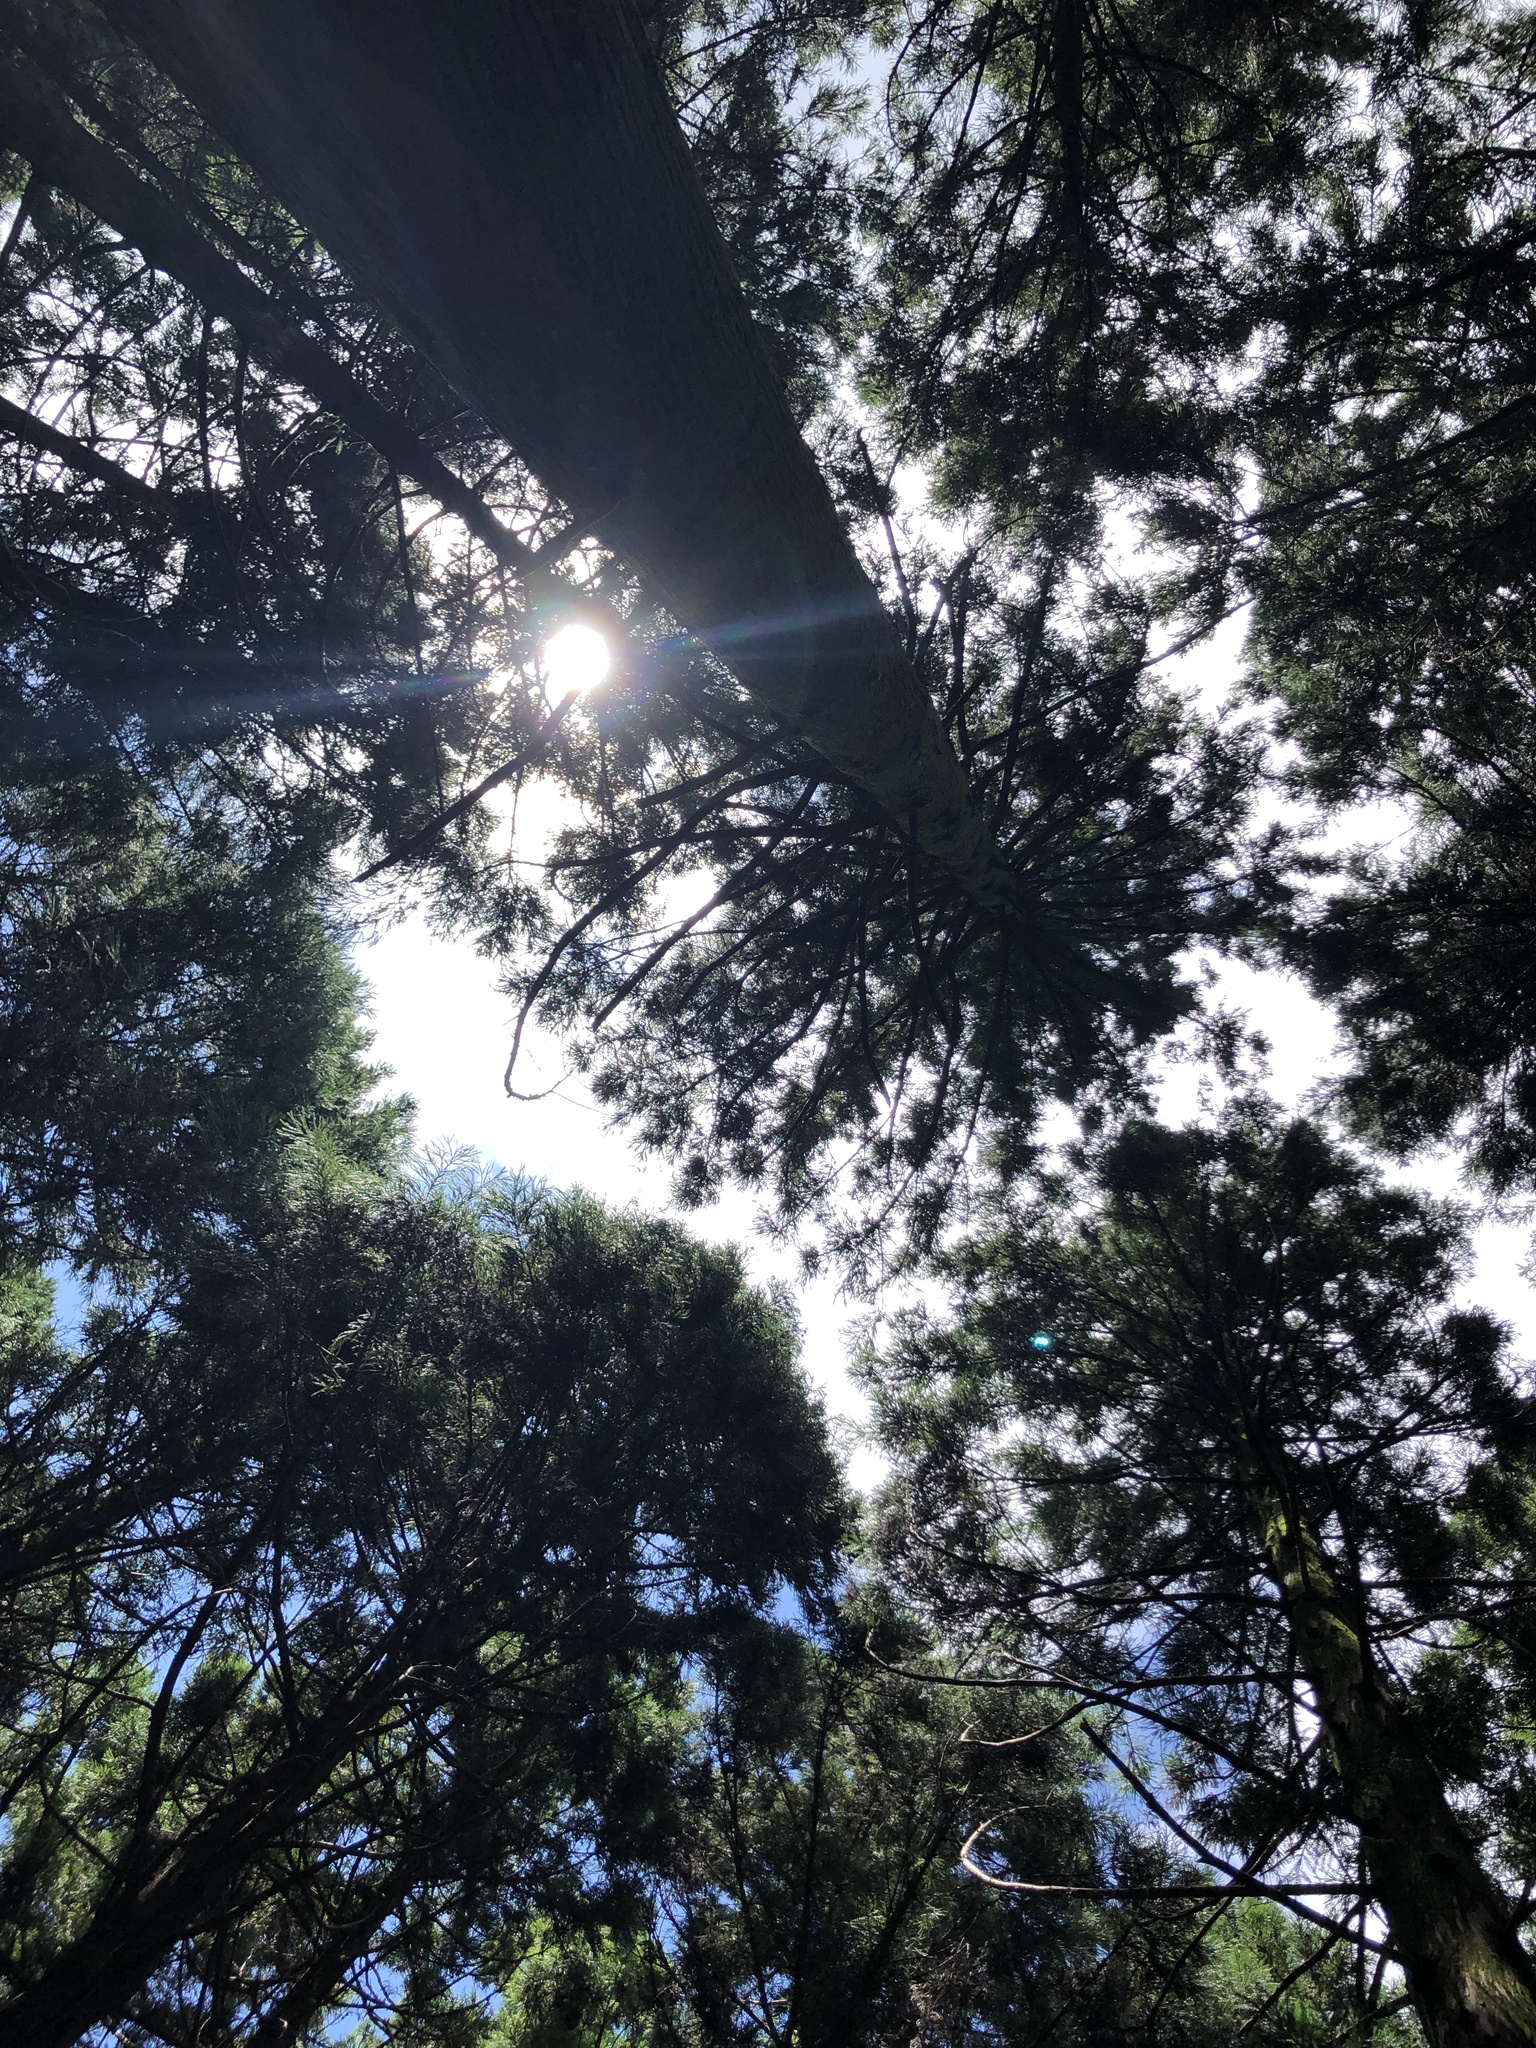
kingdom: Plantae
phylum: Marchantiophyta
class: Jungermanniopsida
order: Jungermanniales
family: Lophocoleaceae
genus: Lophocolea
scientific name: Lophocolea minor
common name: Lesser crestwort
